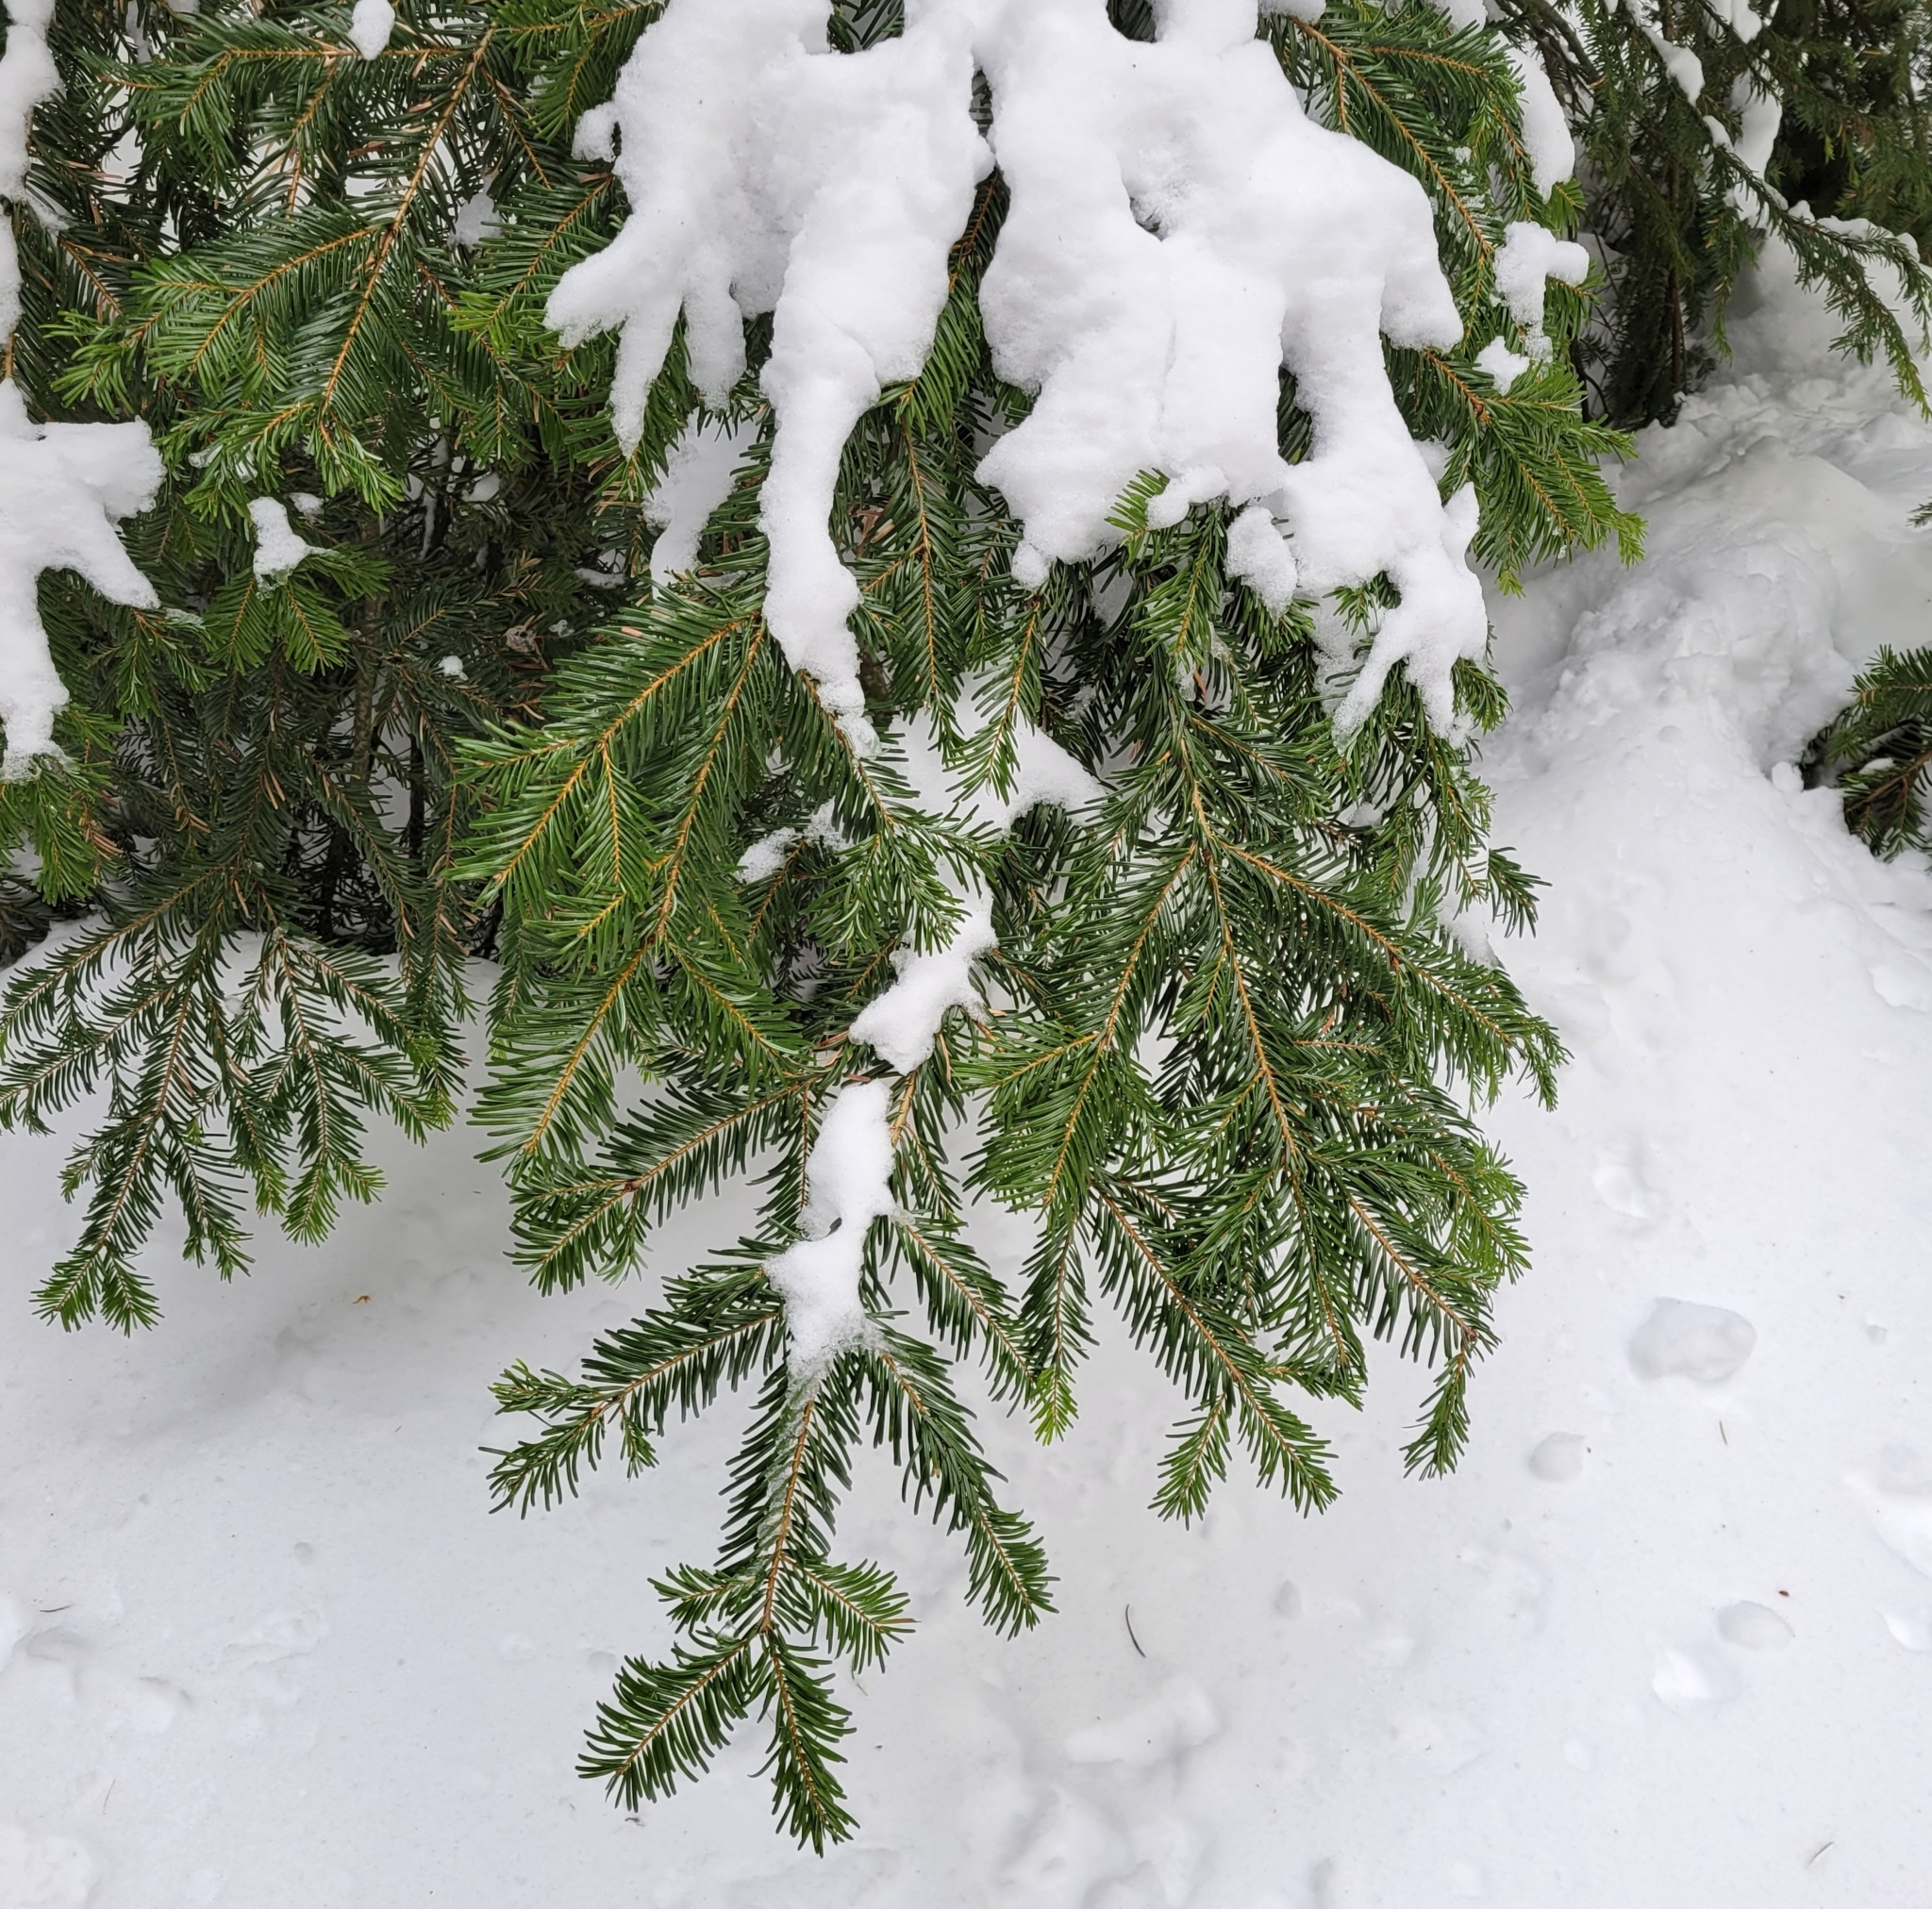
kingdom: Plantae
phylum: Tracheophyta
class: Pinopsida
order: Pinales
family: Pinaceae
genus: Abies
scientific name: Abies grandis
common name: Giant fir
